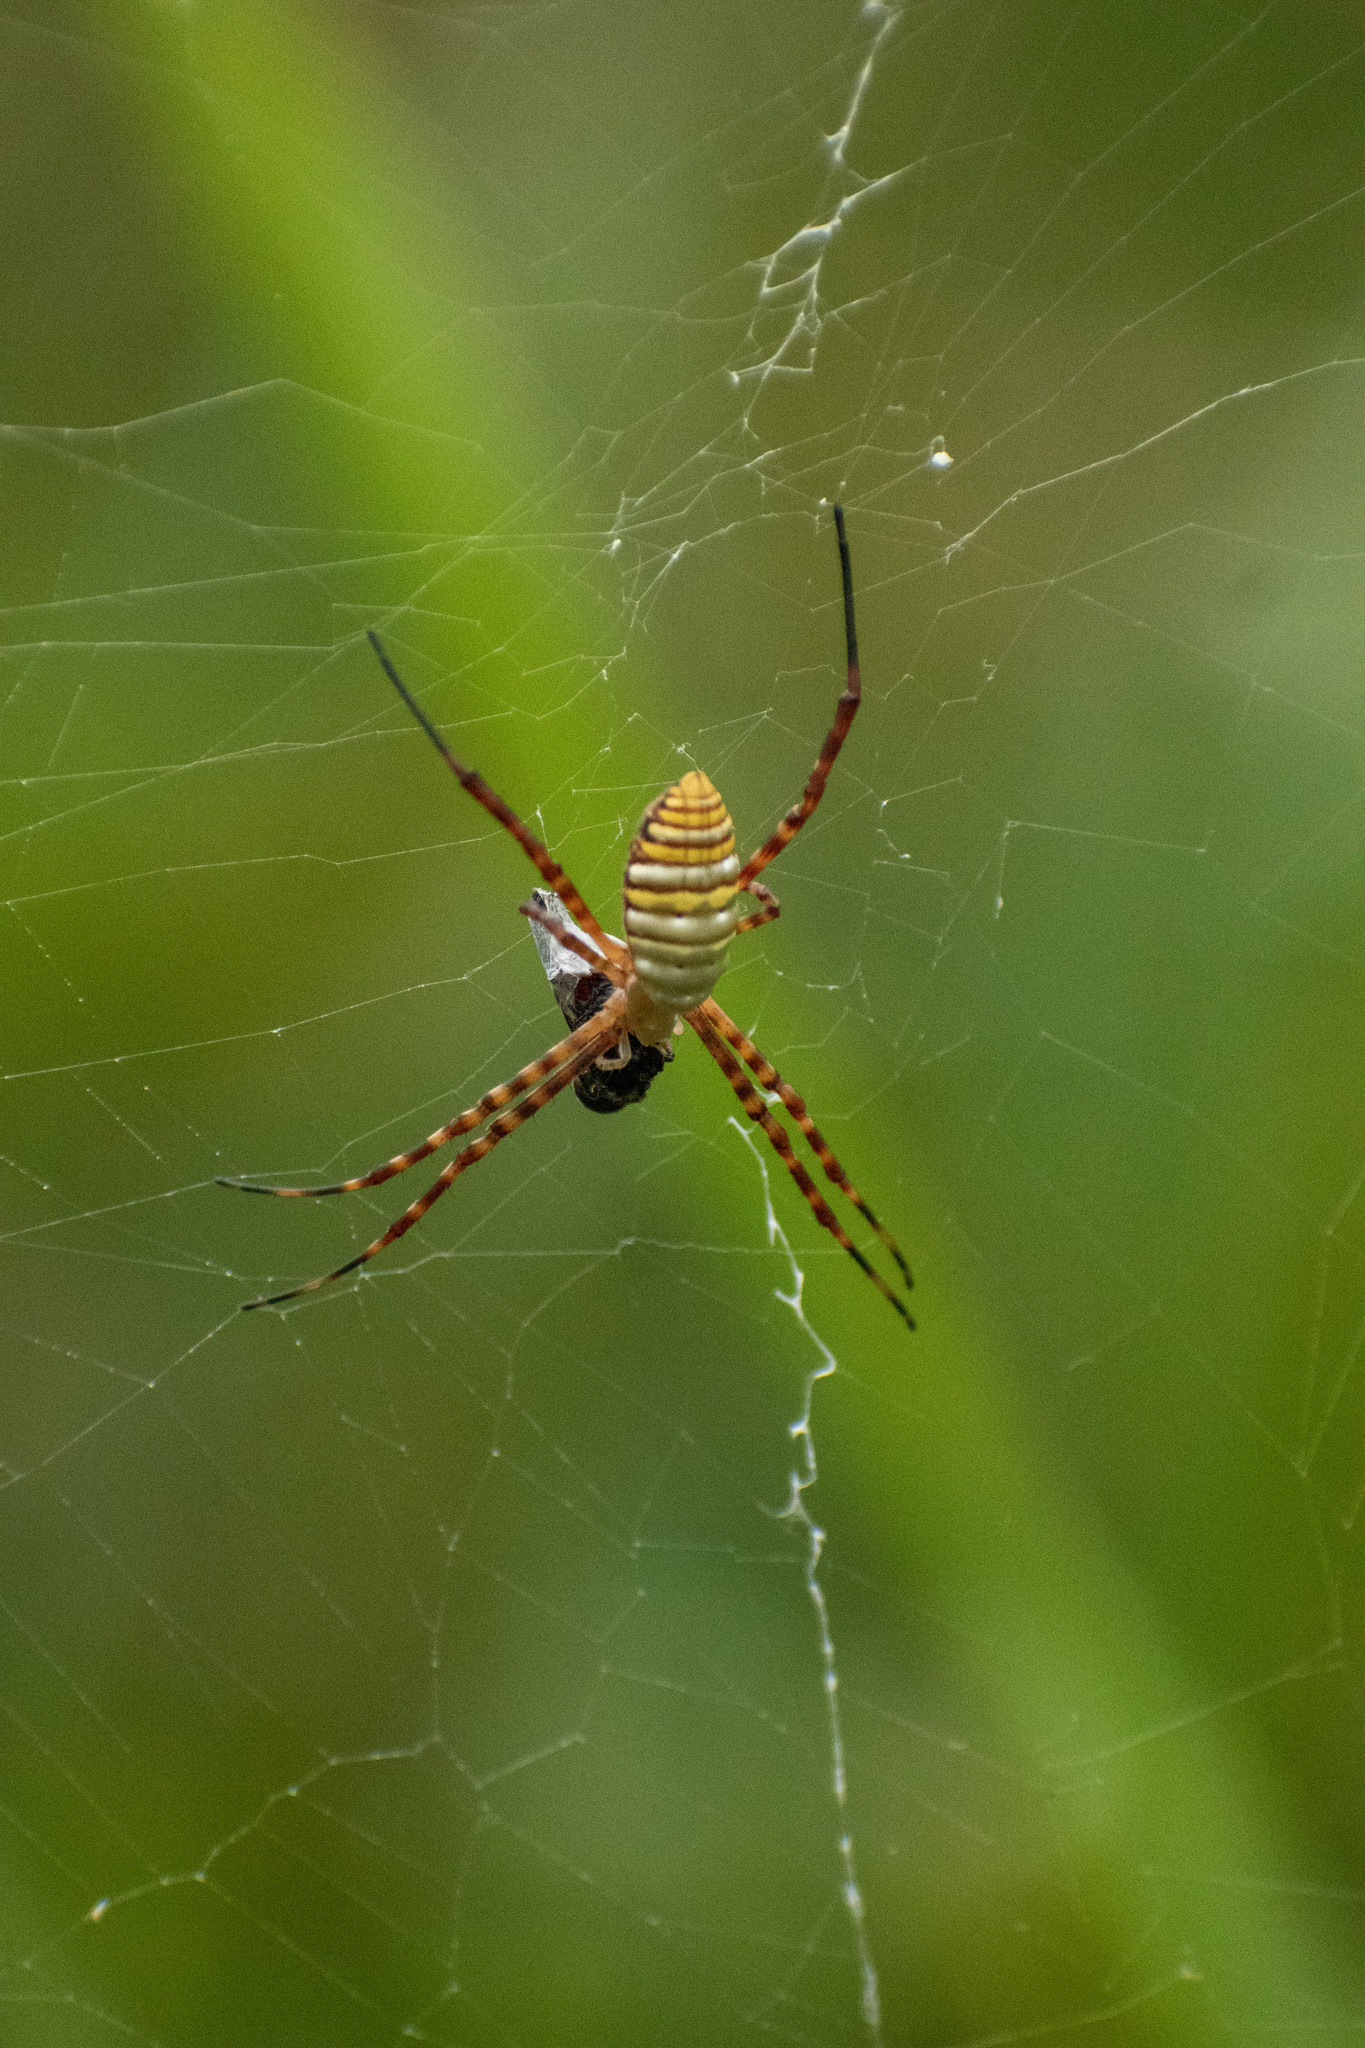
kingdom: Animalia
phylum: Arthropoda
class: Arachnida
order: Araneae
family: Araneidae
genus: Argiope
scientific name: Argiope trifasciata
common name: Banded garden spider
